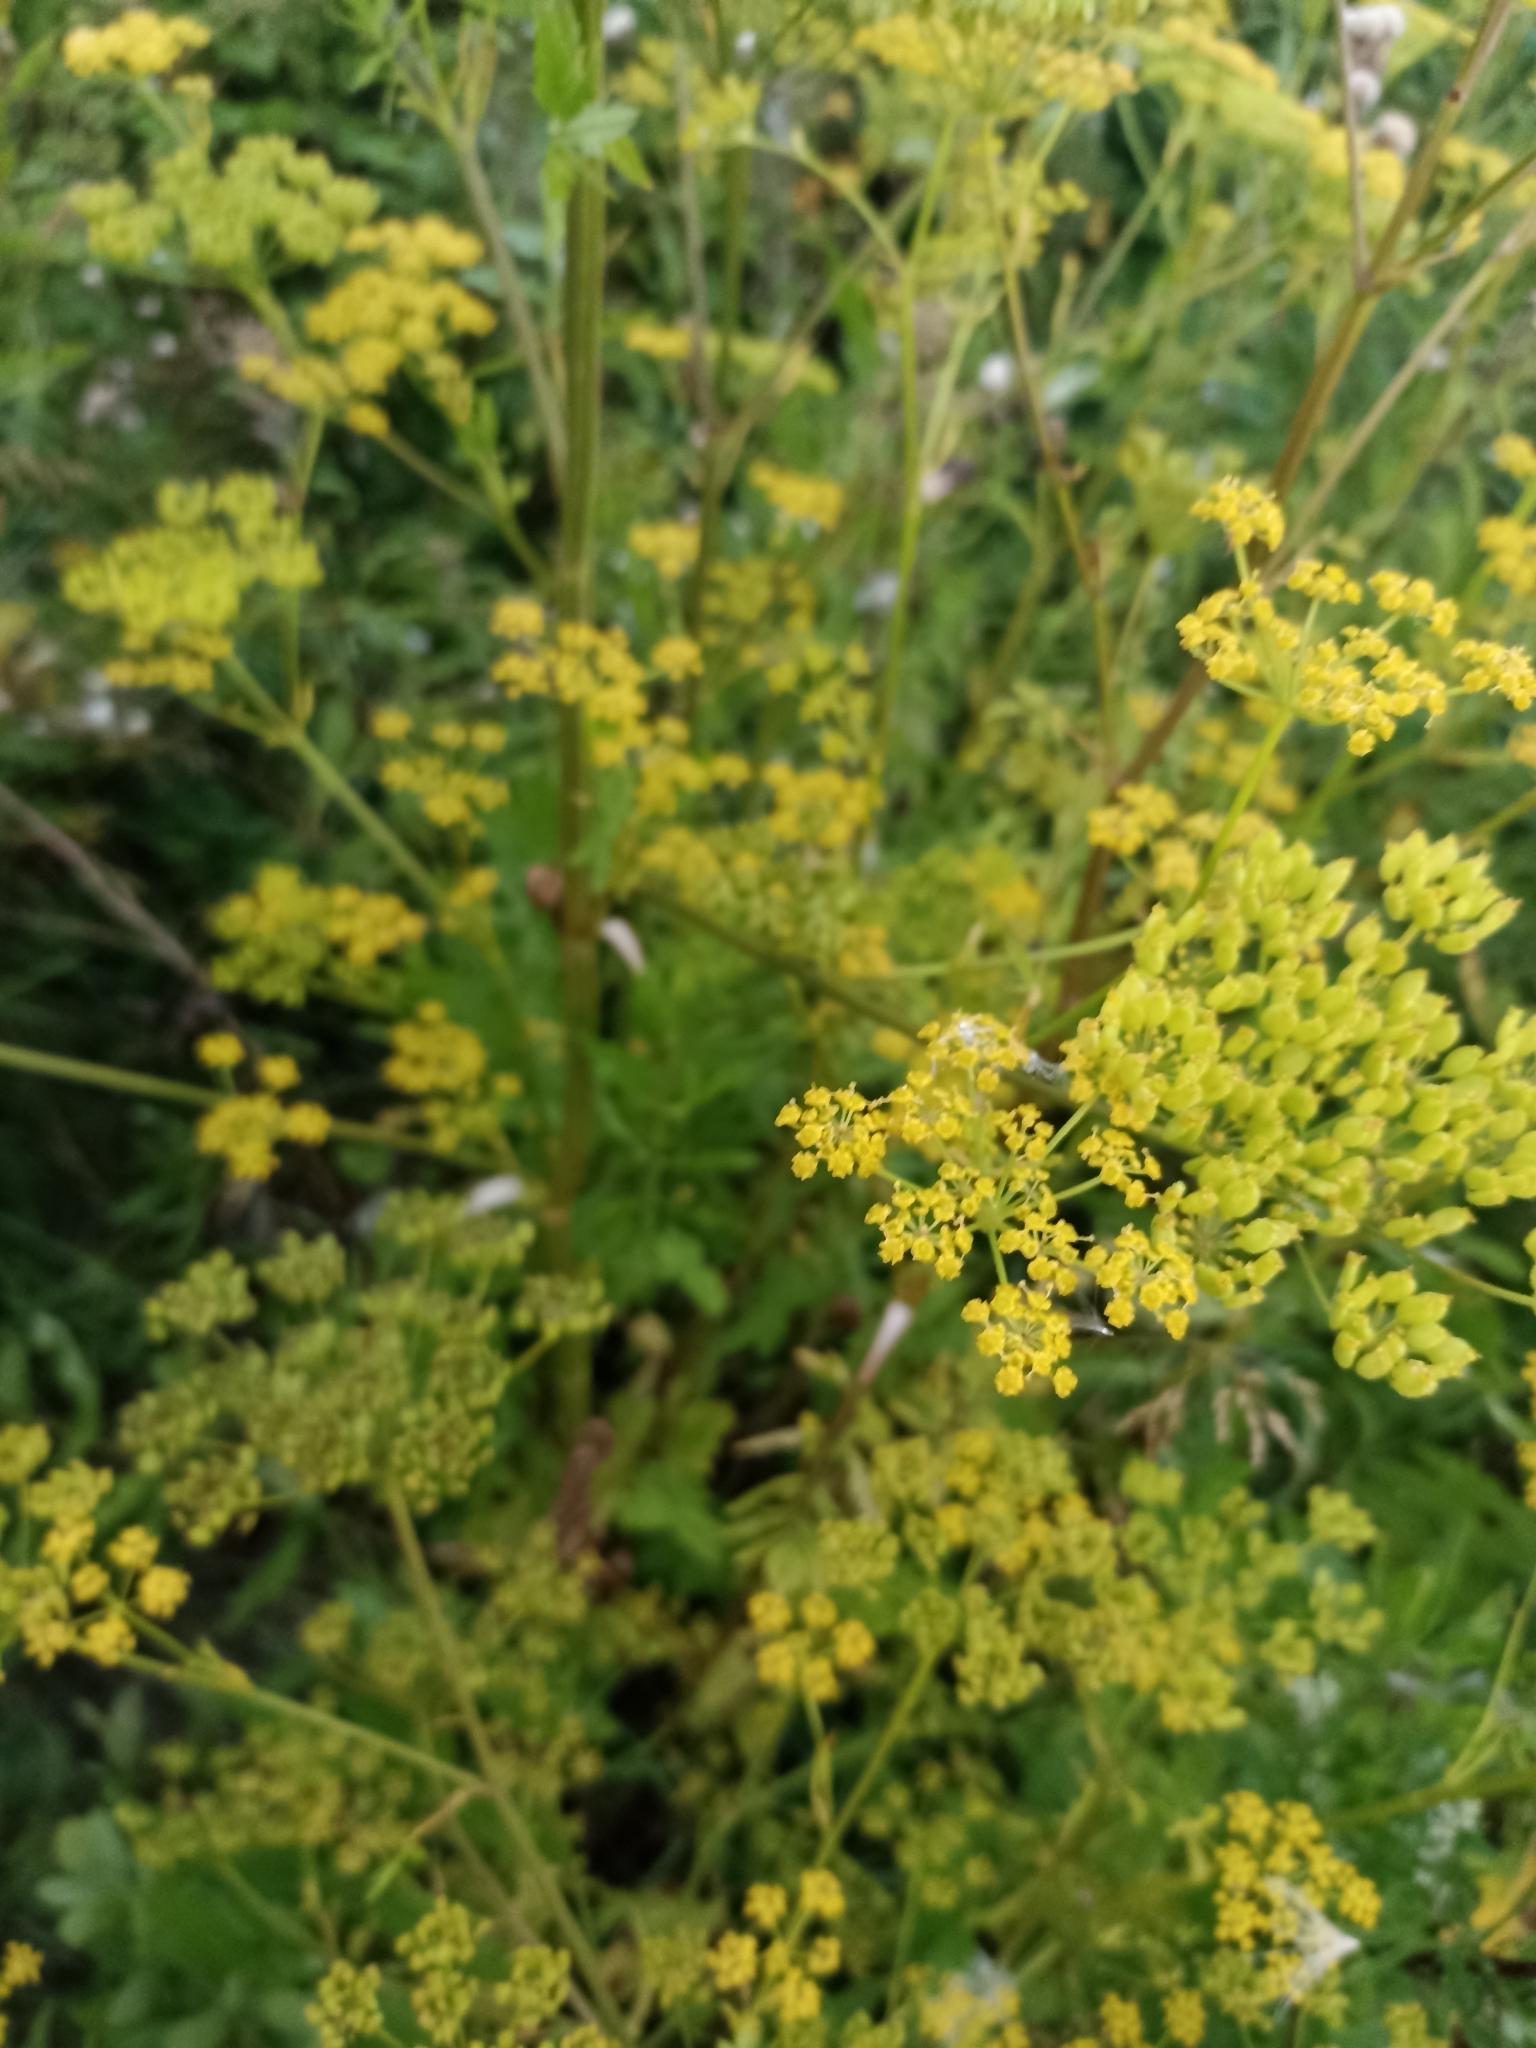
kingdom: Plantae
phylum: Tracheophyta
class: Magnoliopsida
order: Apiales
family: Apiaceae
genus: Pastinaca
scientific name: Pastinaca sativa
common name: Wild parsnip
